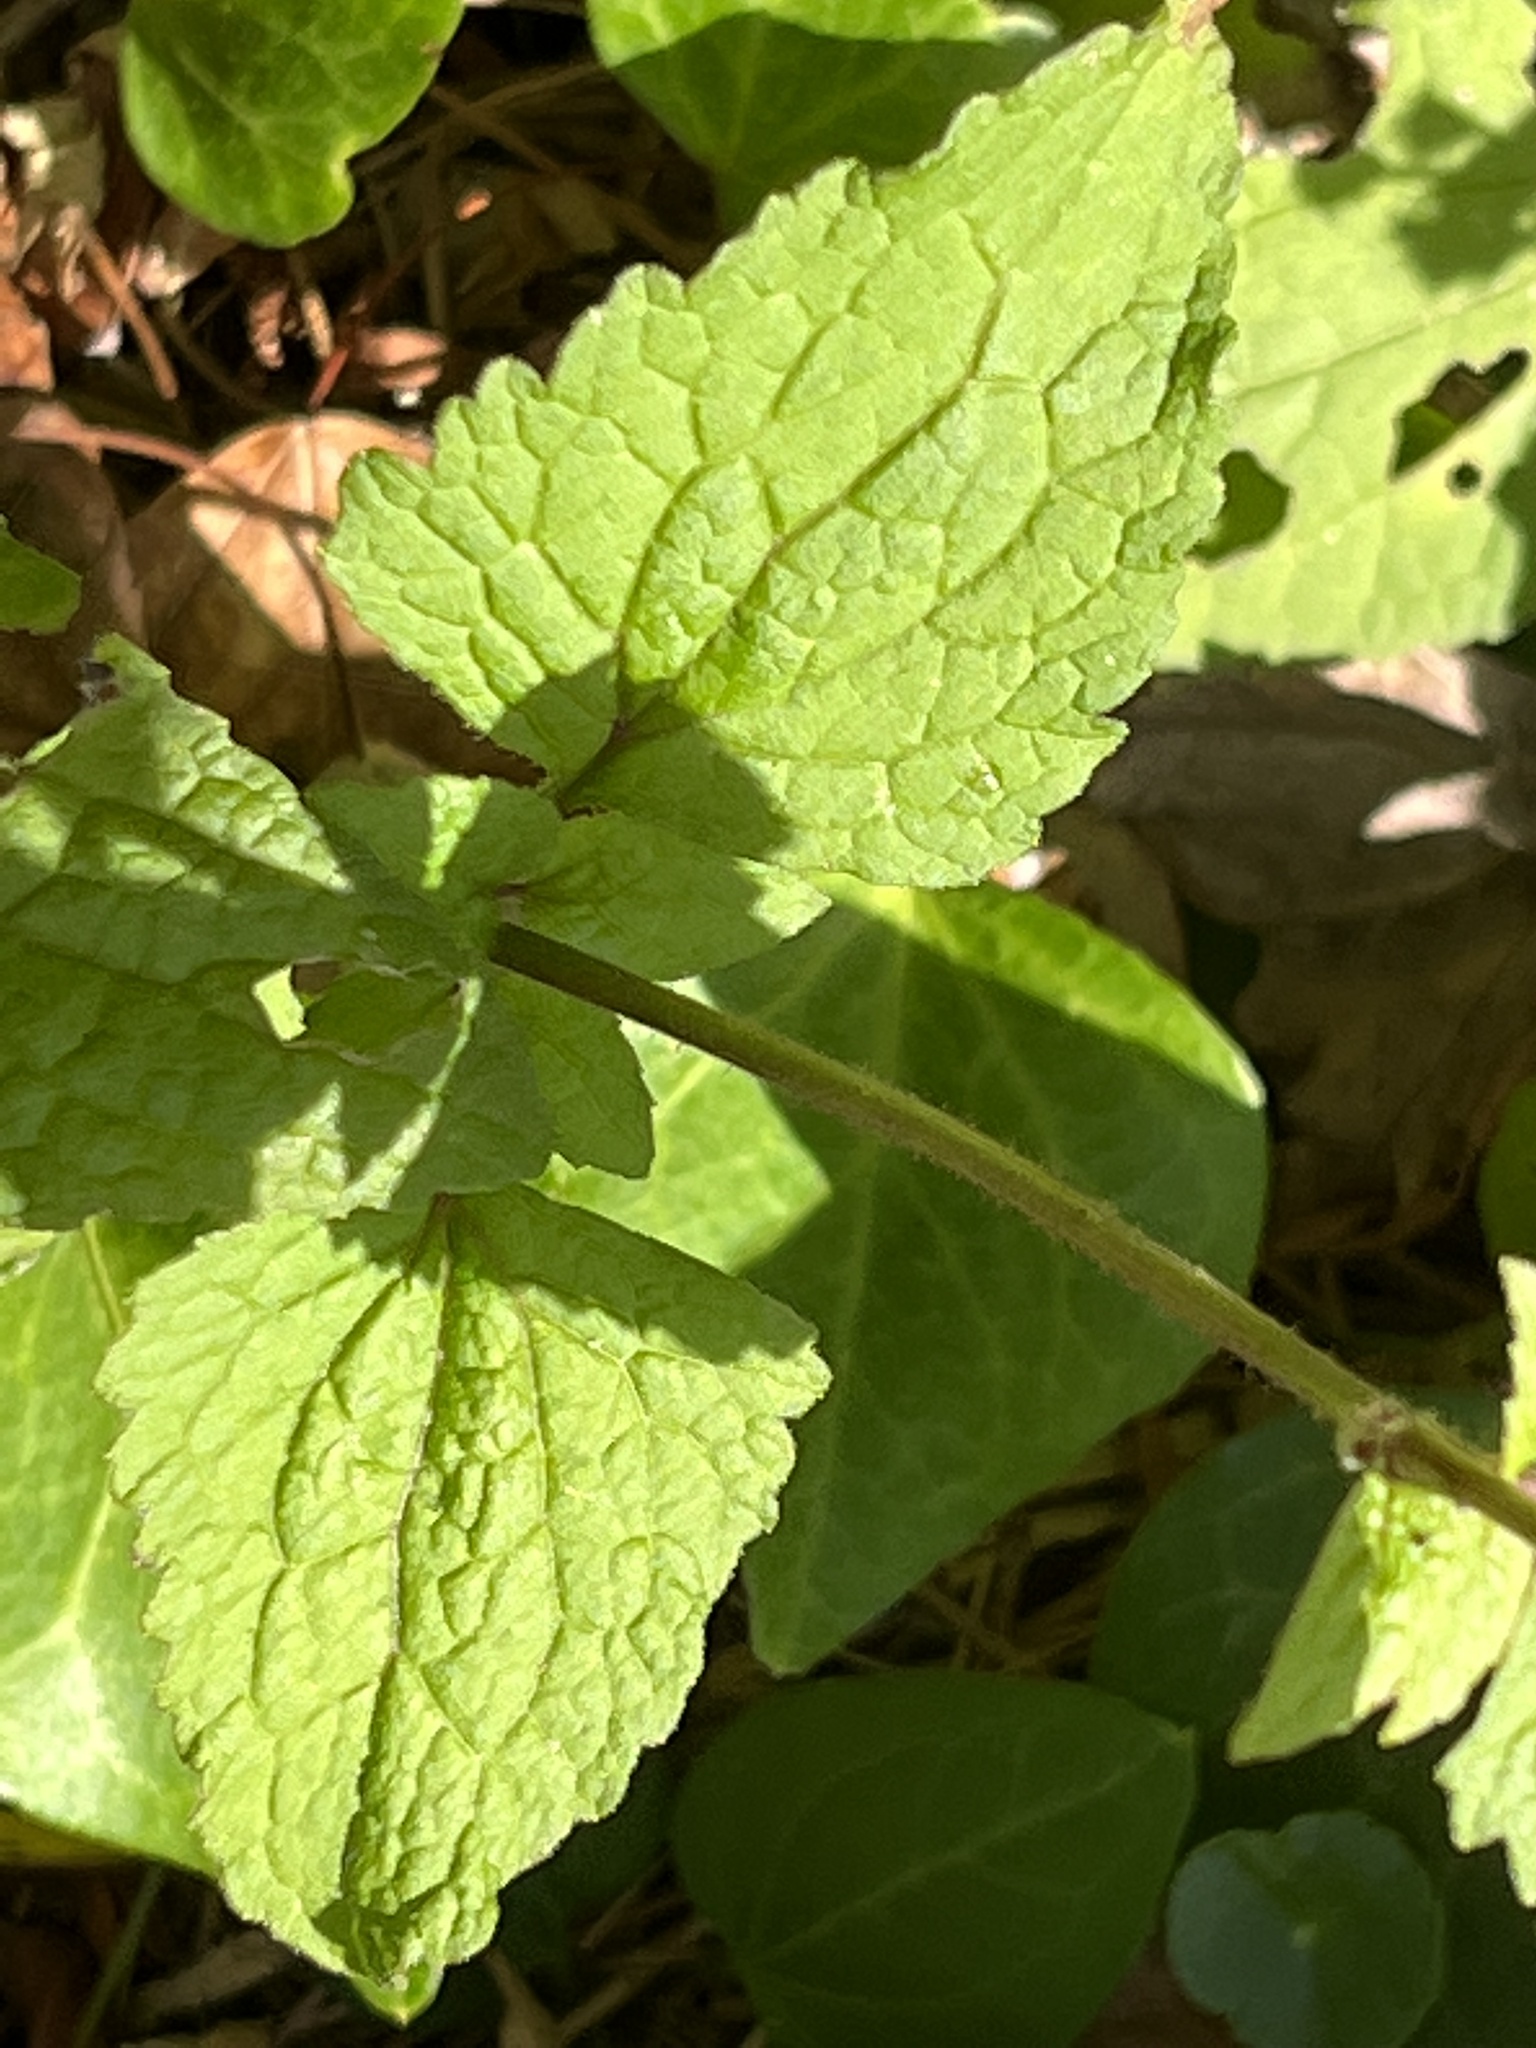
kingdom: Plantae
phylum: Tracheophyta
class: Magnoliopsida
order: Asterales
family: Asteraceae
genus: Conoclinium
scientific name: Conoclinium coelestinum
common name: Blue mistflower
